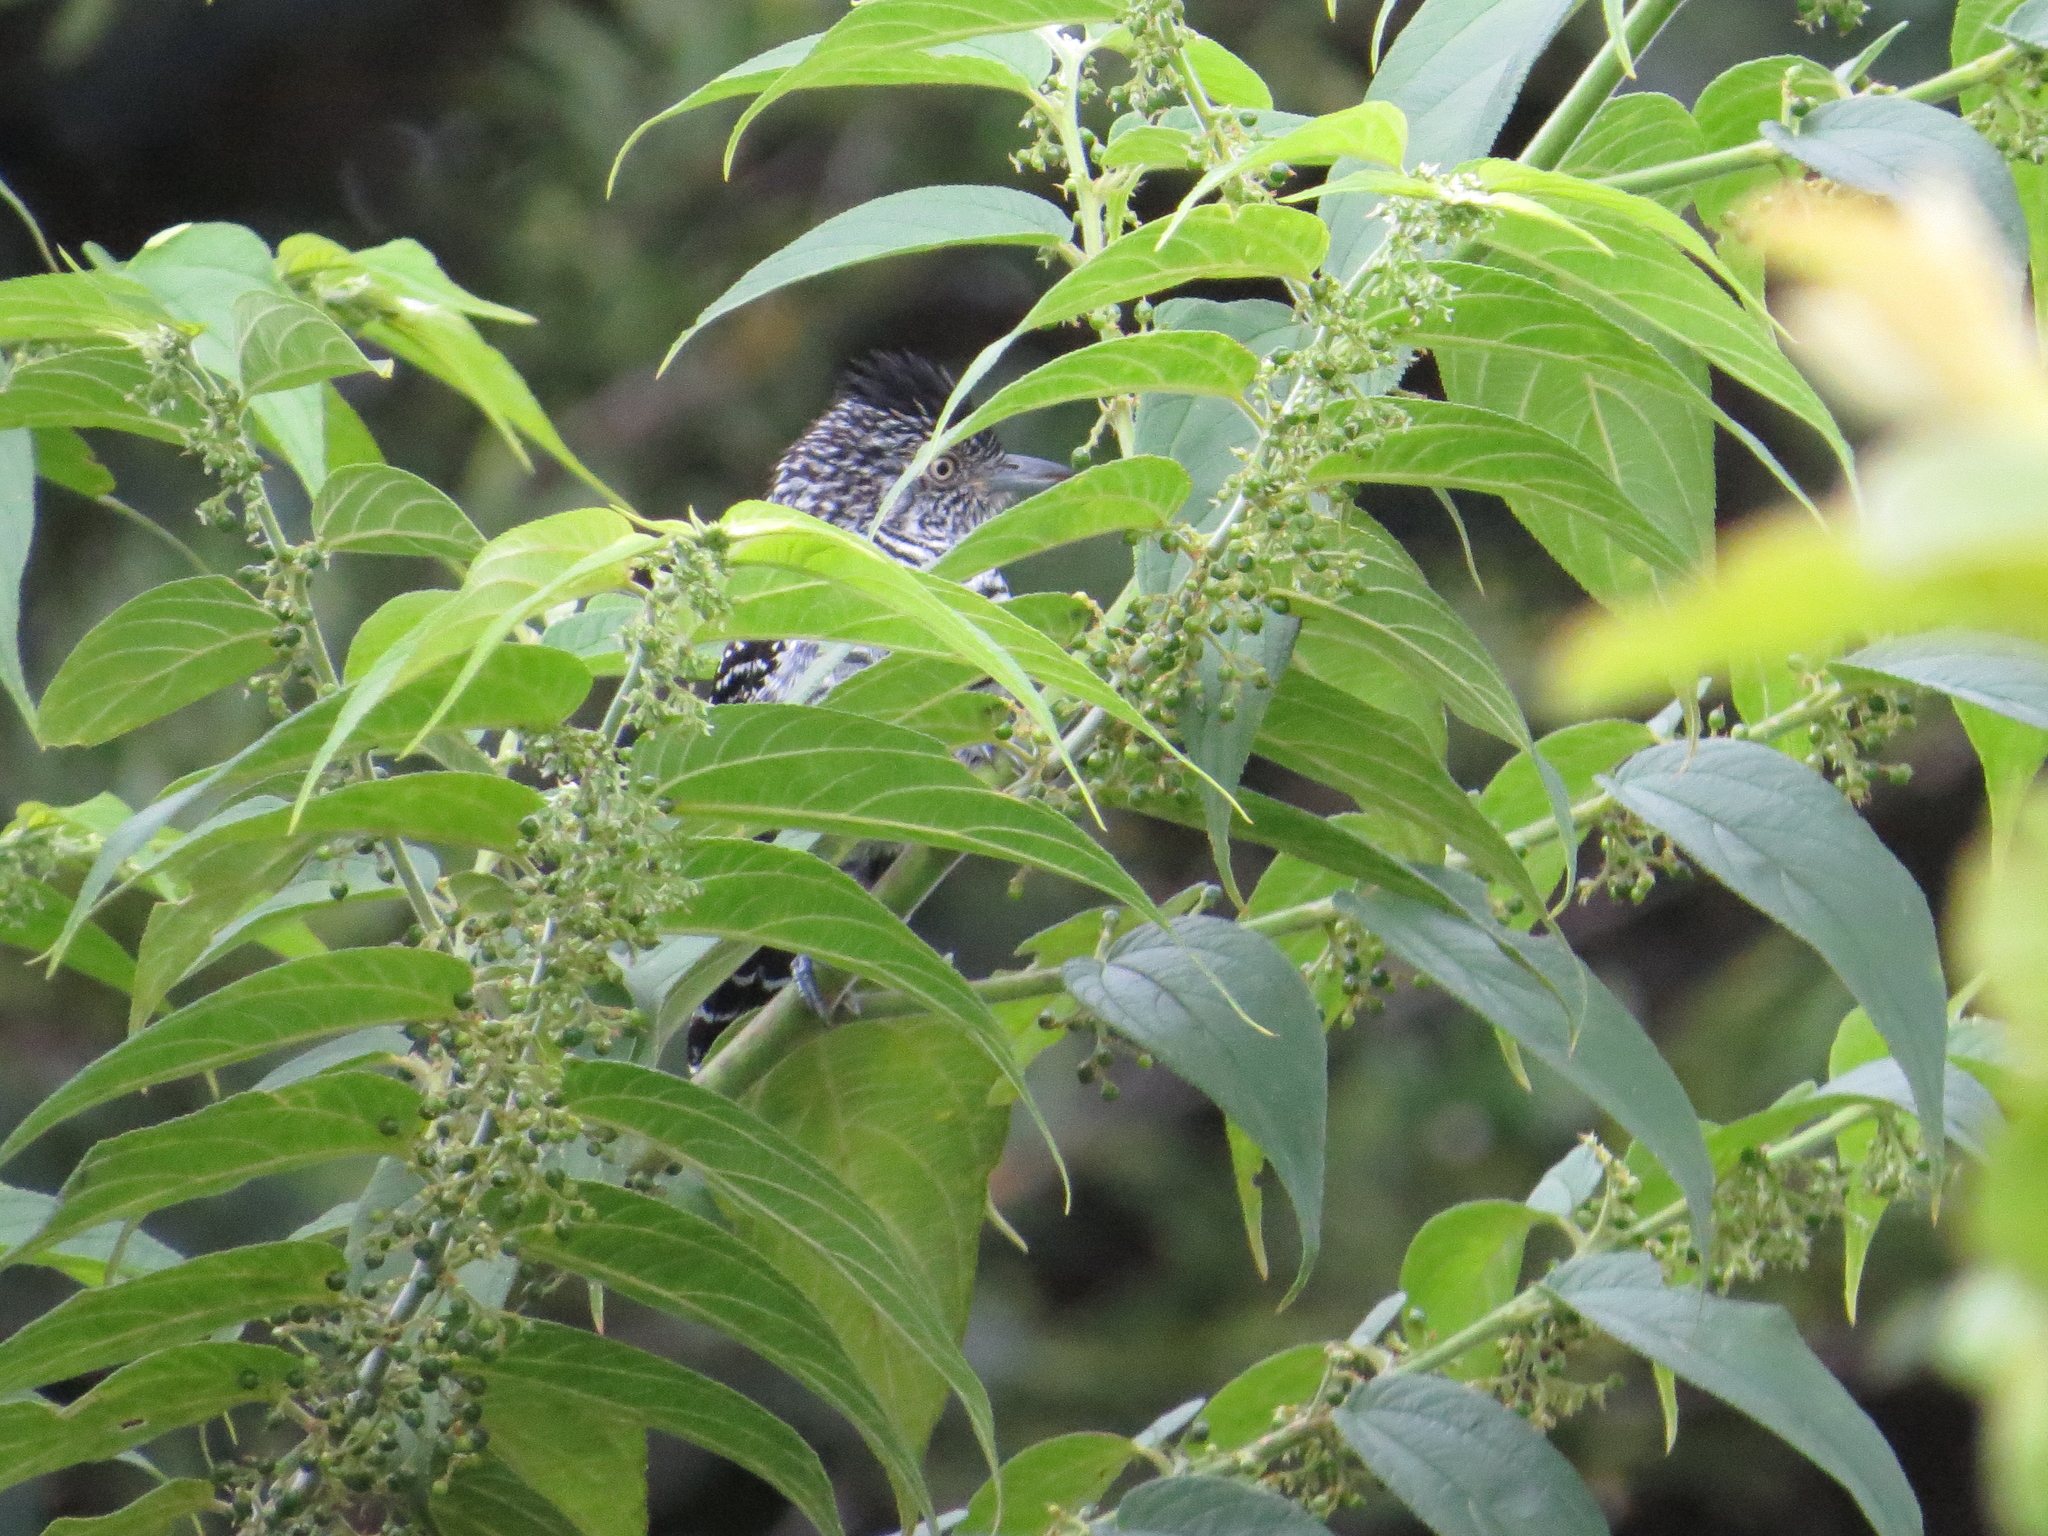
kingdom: Animalia
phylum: Chordata
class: Aves
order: Passeriformes
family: Thamnophilidae
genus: Thamnophilus
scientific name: Thamnophilus doliatus
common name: Barred antshrike
